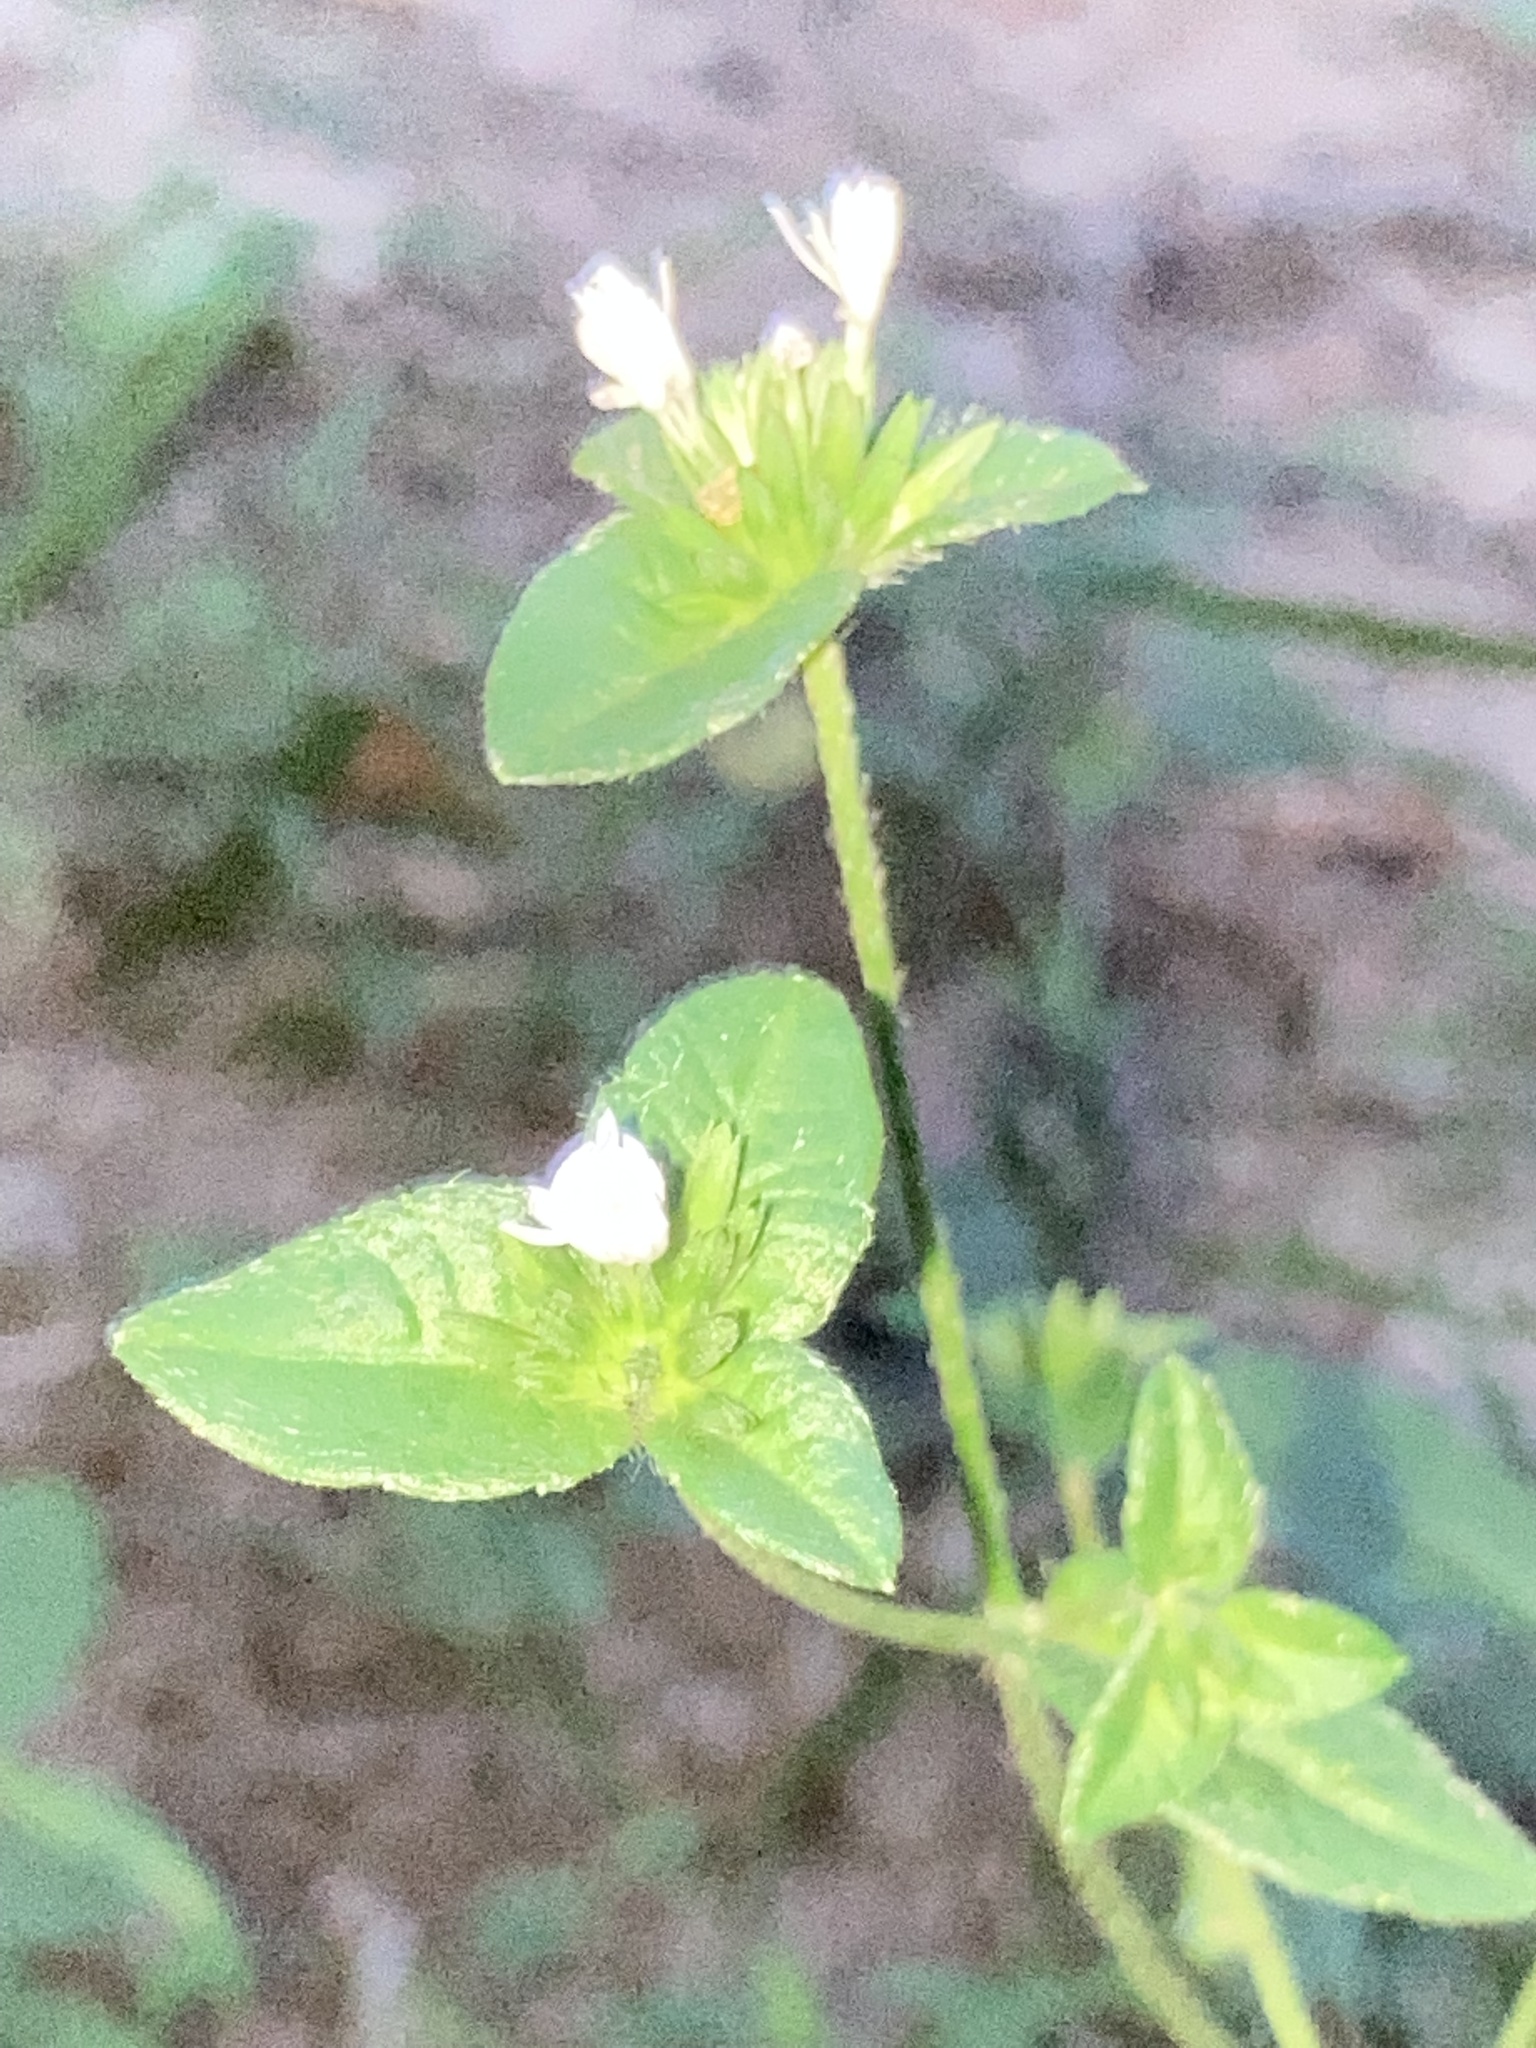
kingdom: Plantae
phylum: Tracheophyta
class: Magnoliopsida
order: Asterales
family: Asteraceae
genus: Elephantopus
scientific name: Elephantopus carolinianus
